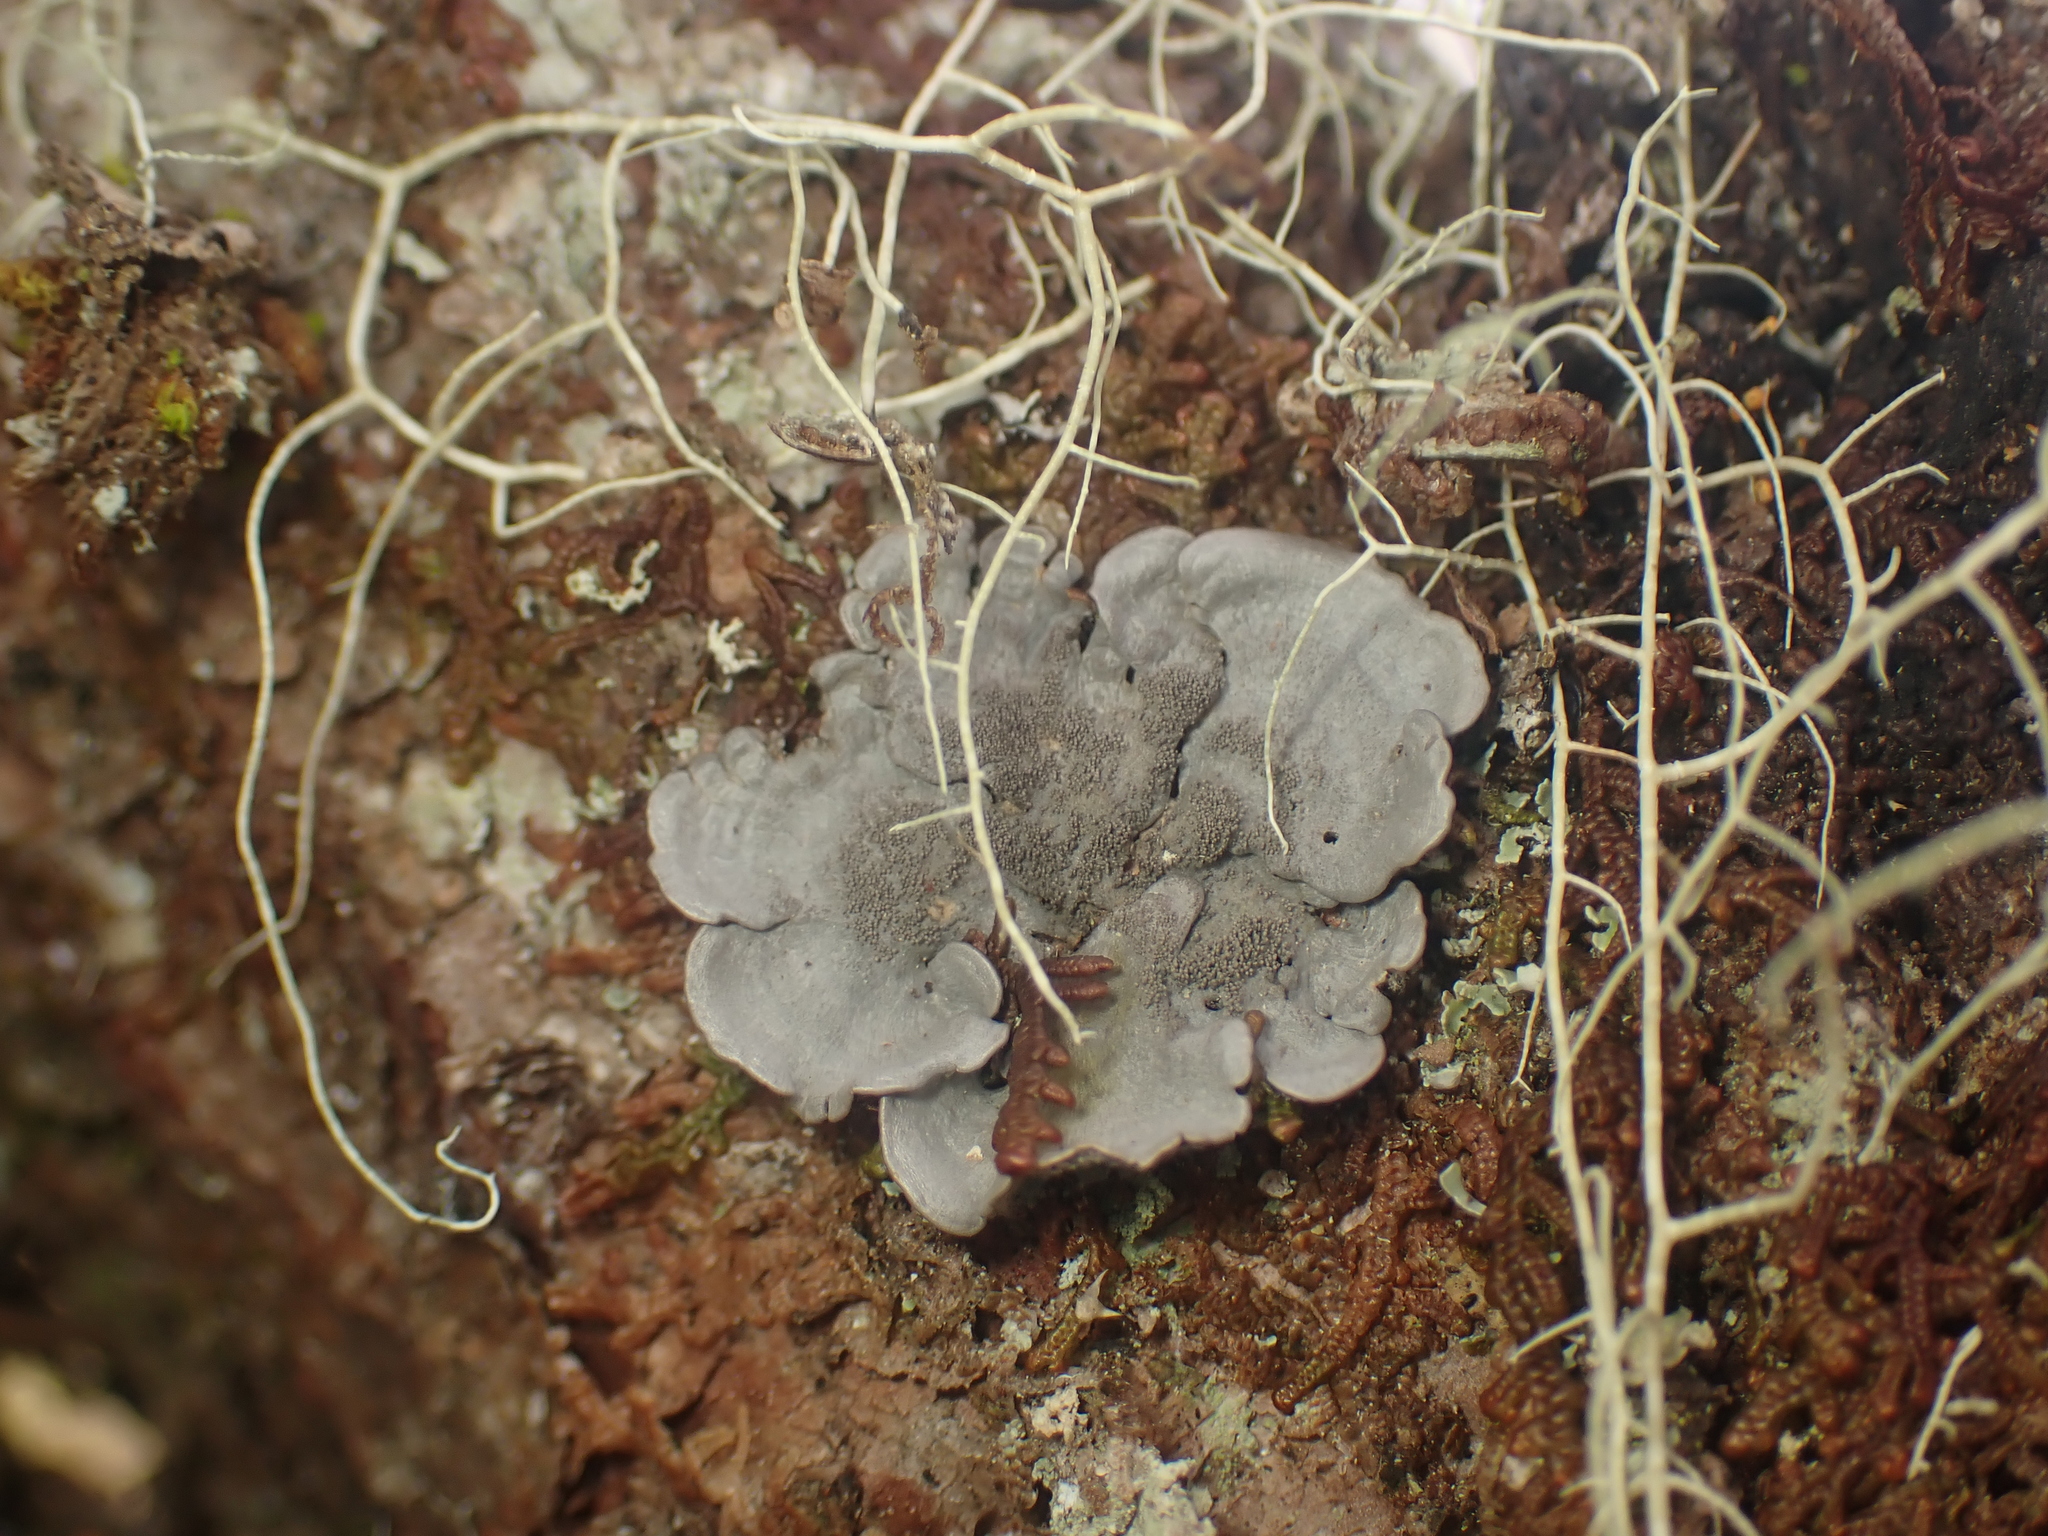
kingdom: Fungi
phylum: Ascomycota
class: Lecanoromycetes
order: Peltigerales
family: Coccocarpiaceae
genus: Coccocarpia
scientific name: Coccocarpia palmicola
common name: Salted shell lichen
